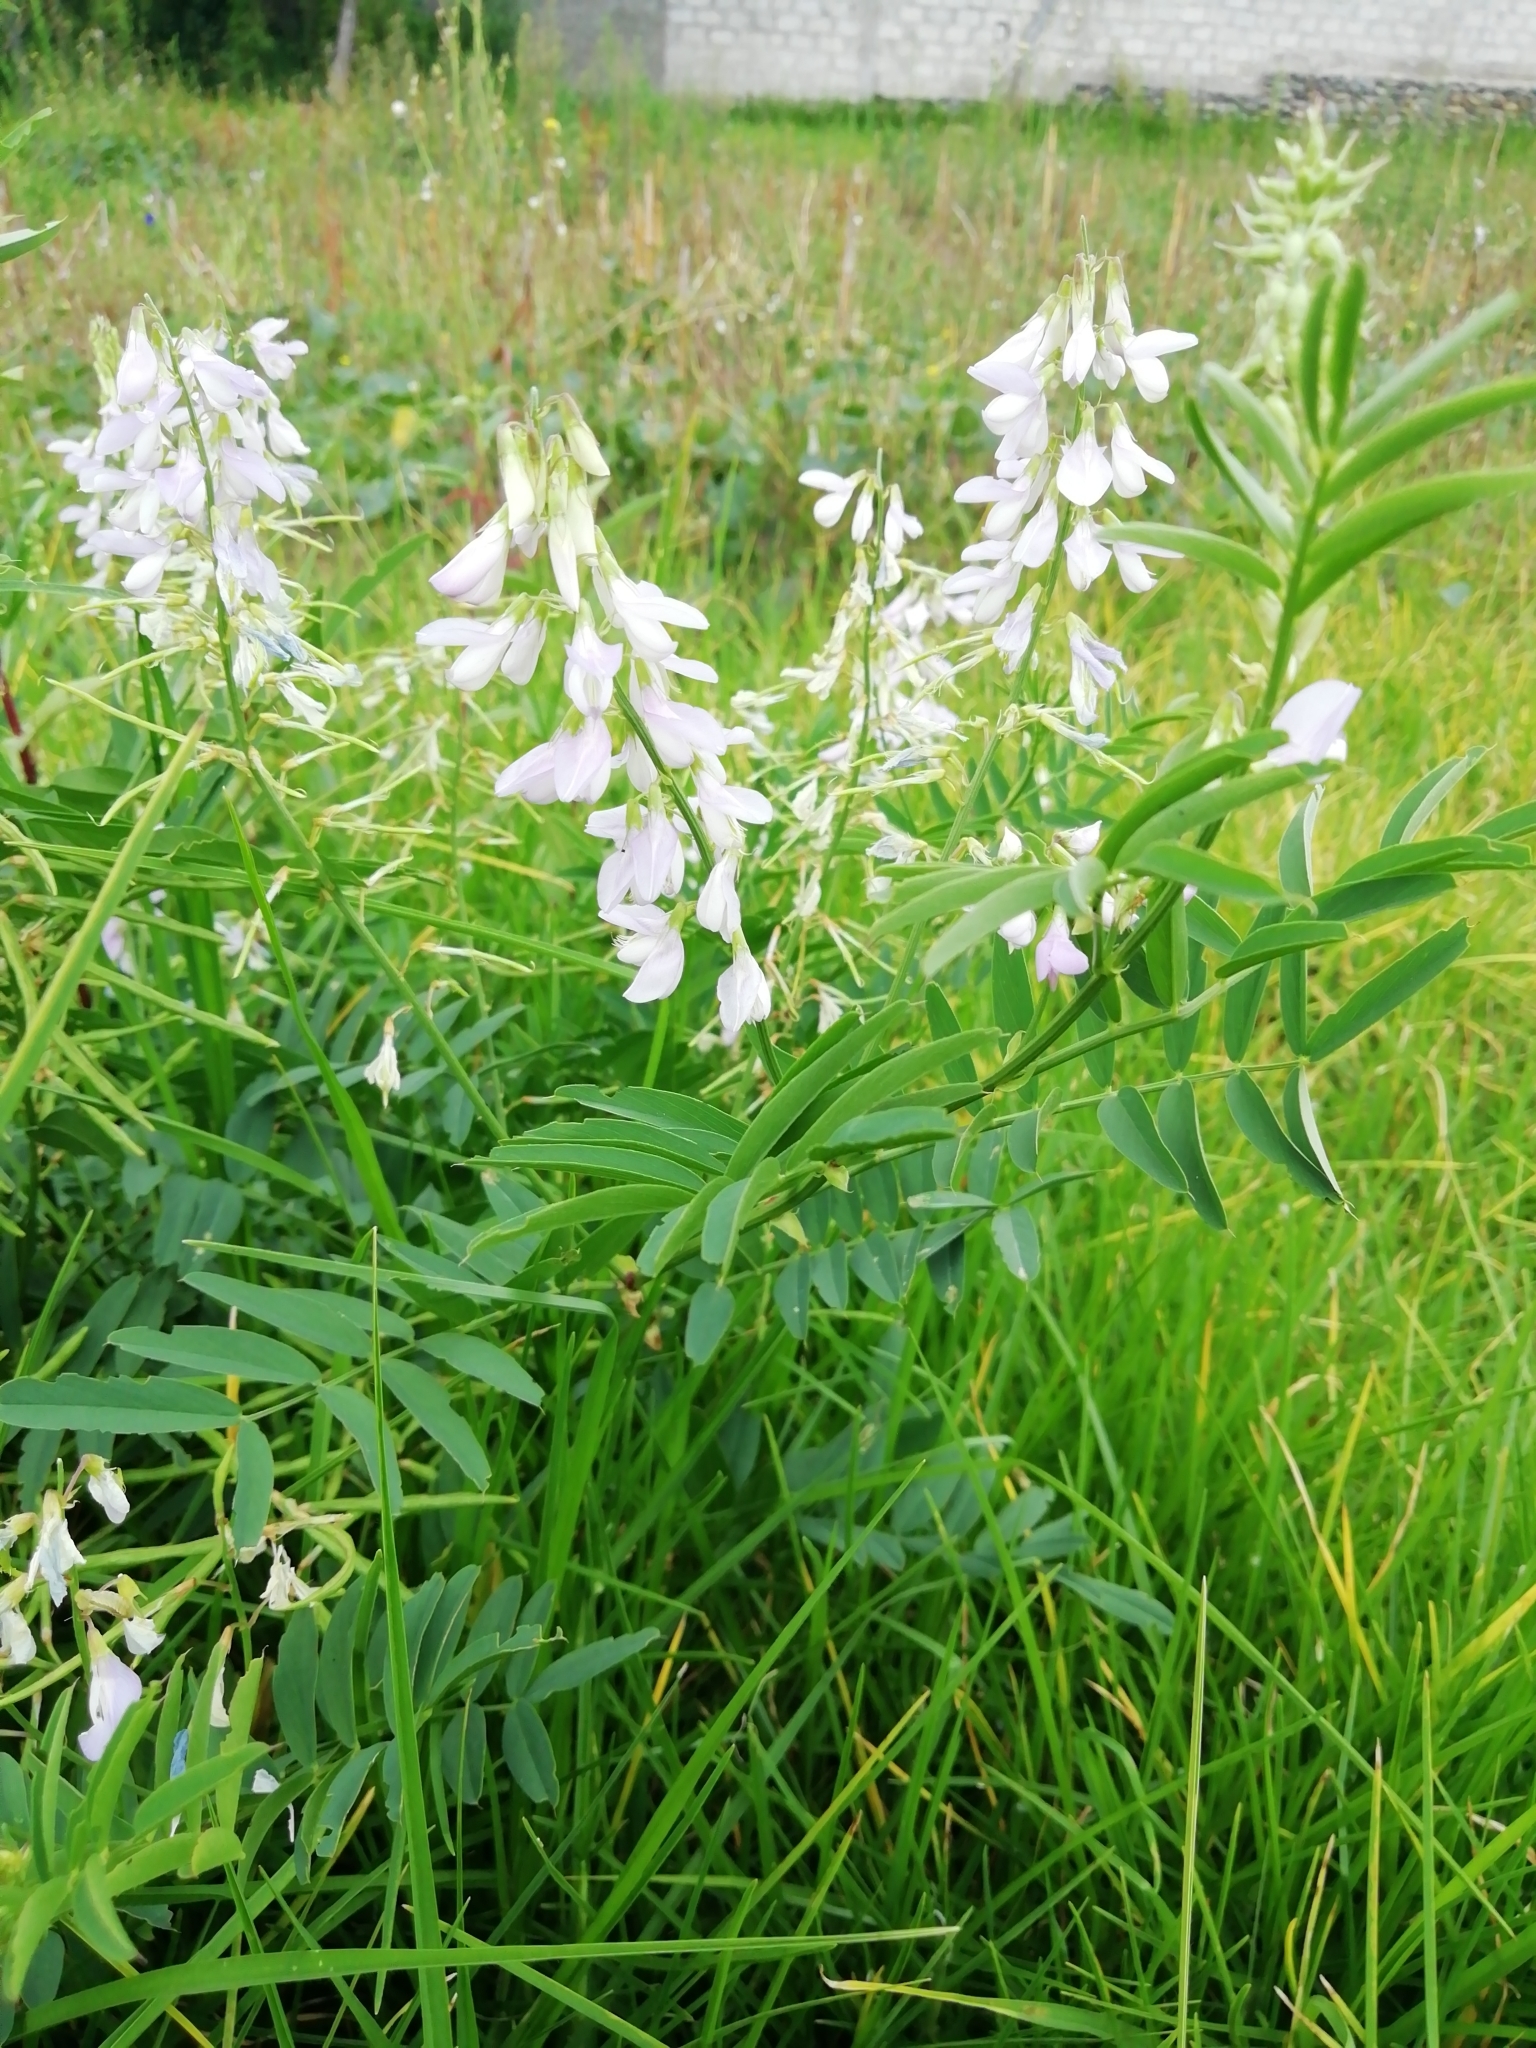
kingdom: Plantae
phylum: Tracheophyta
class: Magnoliopsida
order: Fabales
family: Fabaceae
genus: Galega
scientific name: Galega officinalis
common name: Goat's-rue
